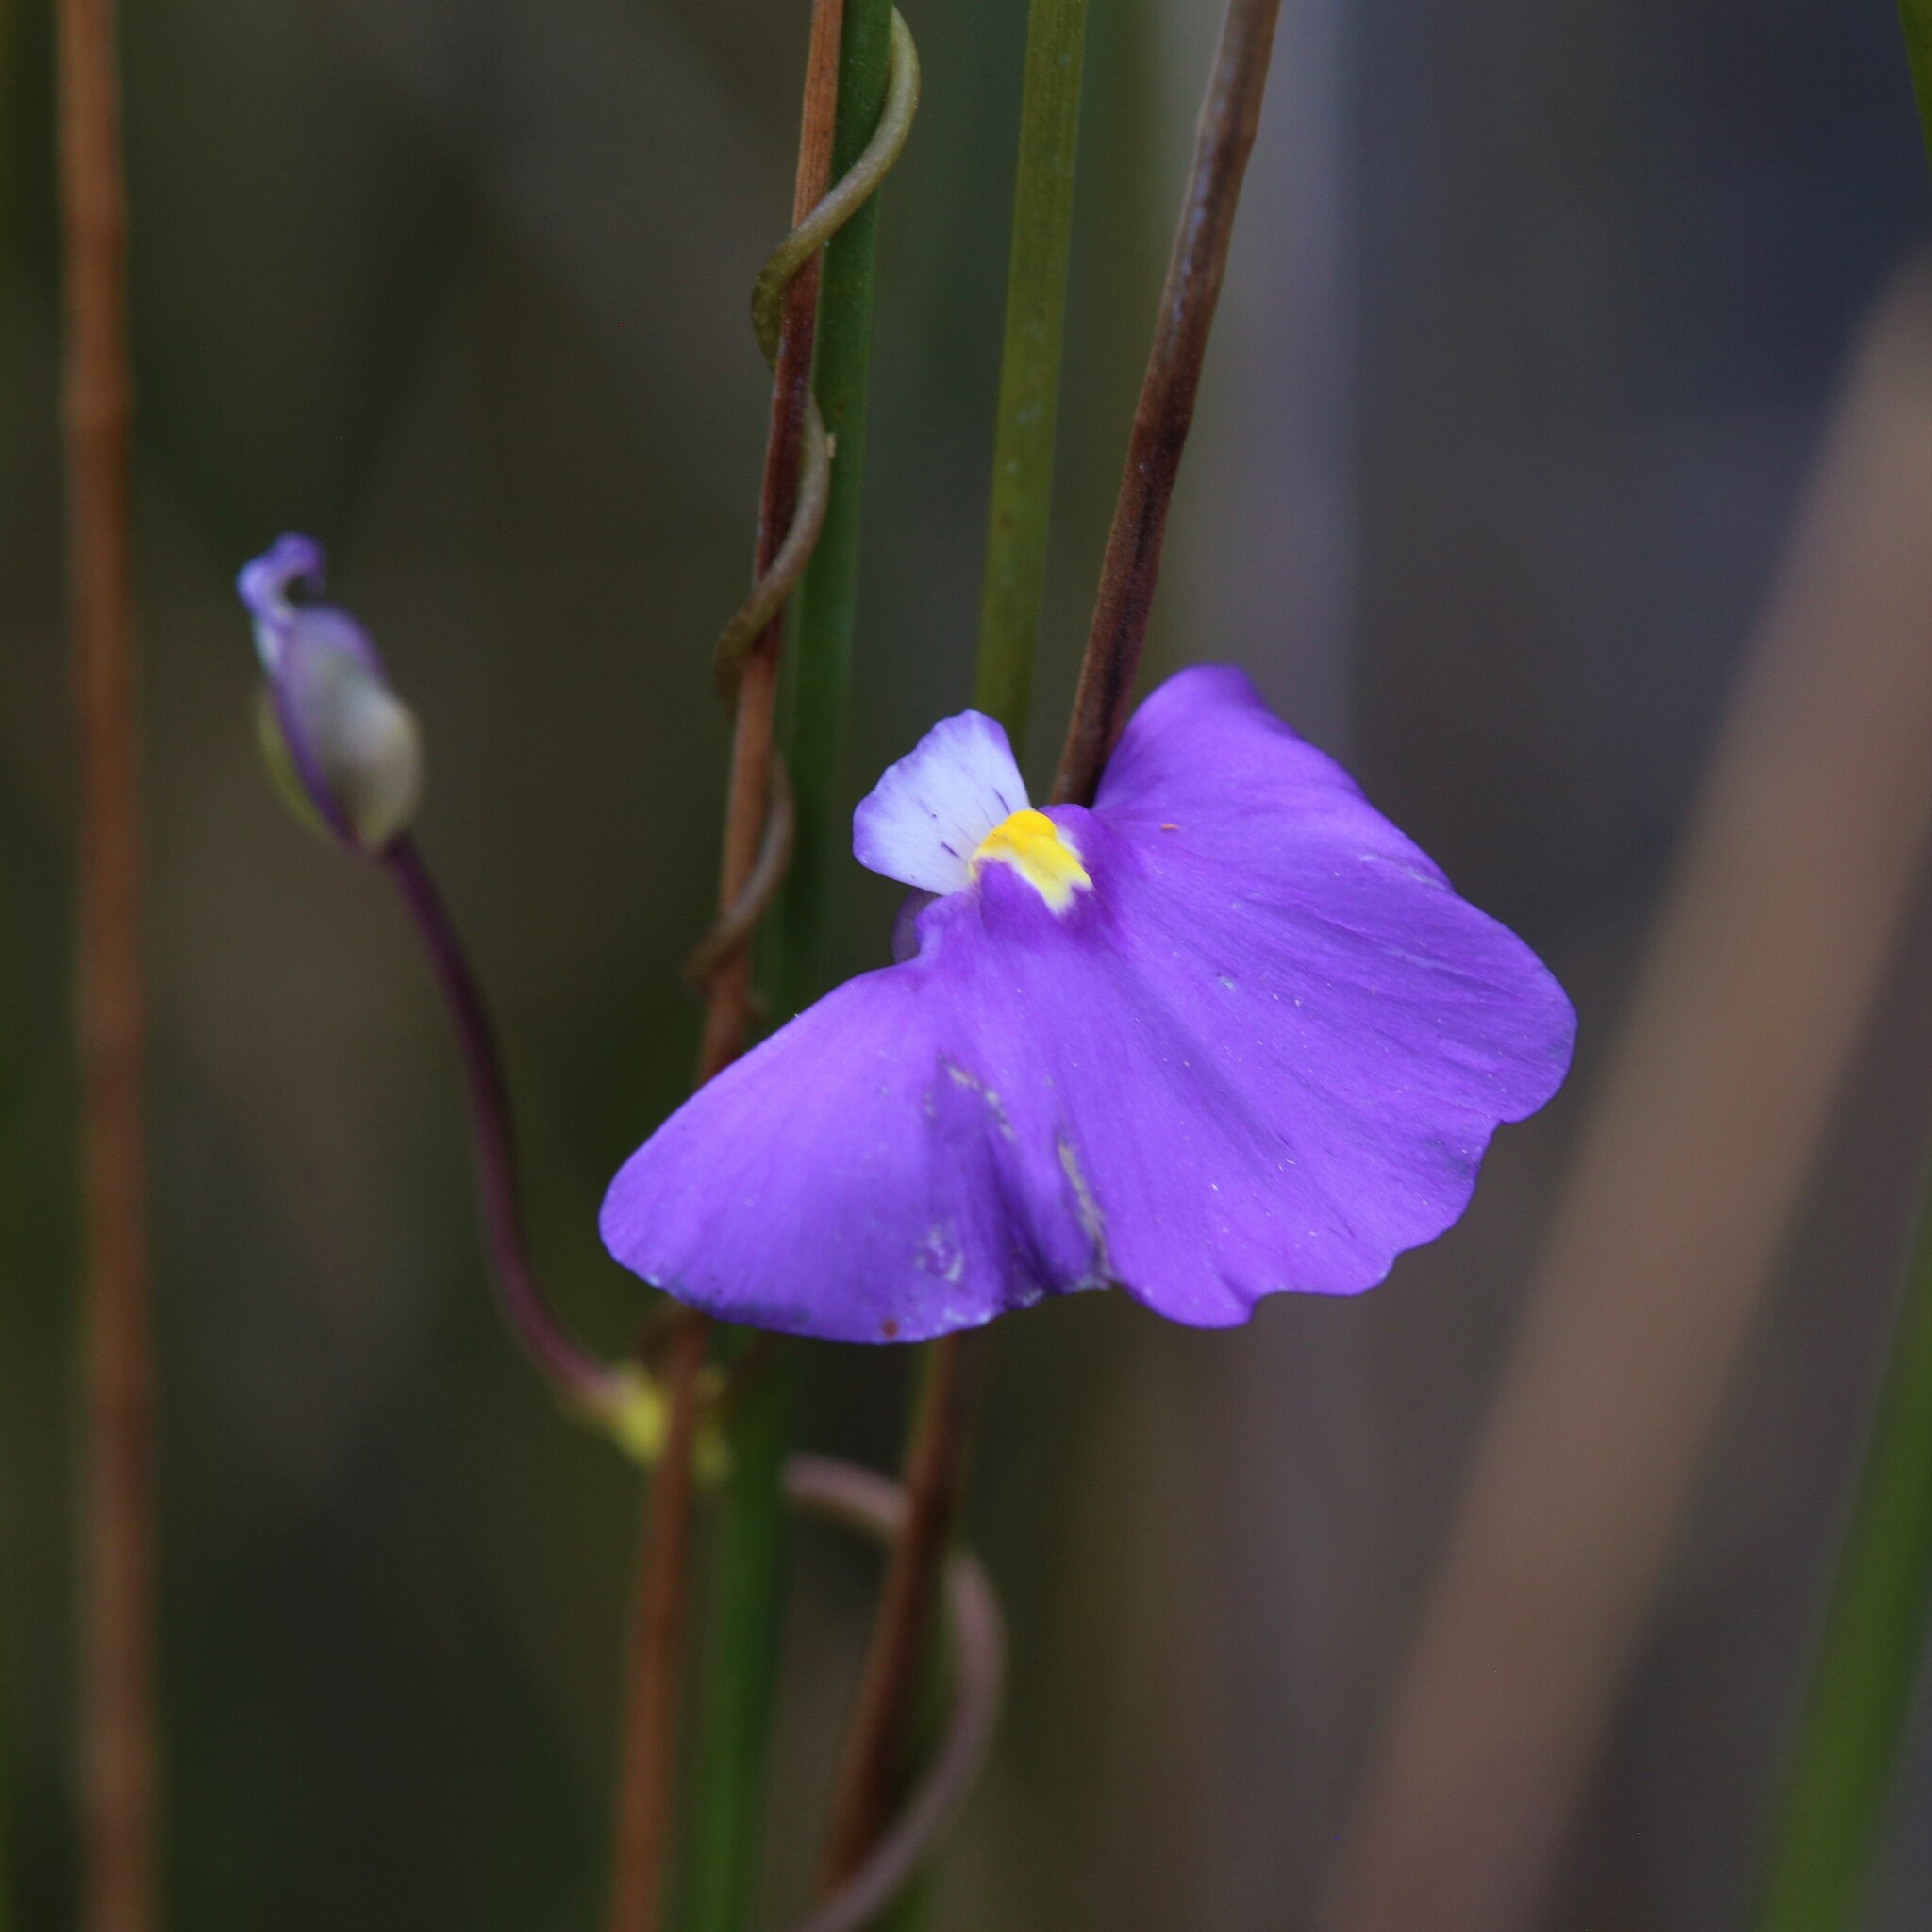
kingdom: Plantae
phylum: Tracheophyta
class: Magnoliopsida
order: Lamiales
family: Lentibulariaceae
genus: Utricularia
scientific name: Utricularia volubilis
